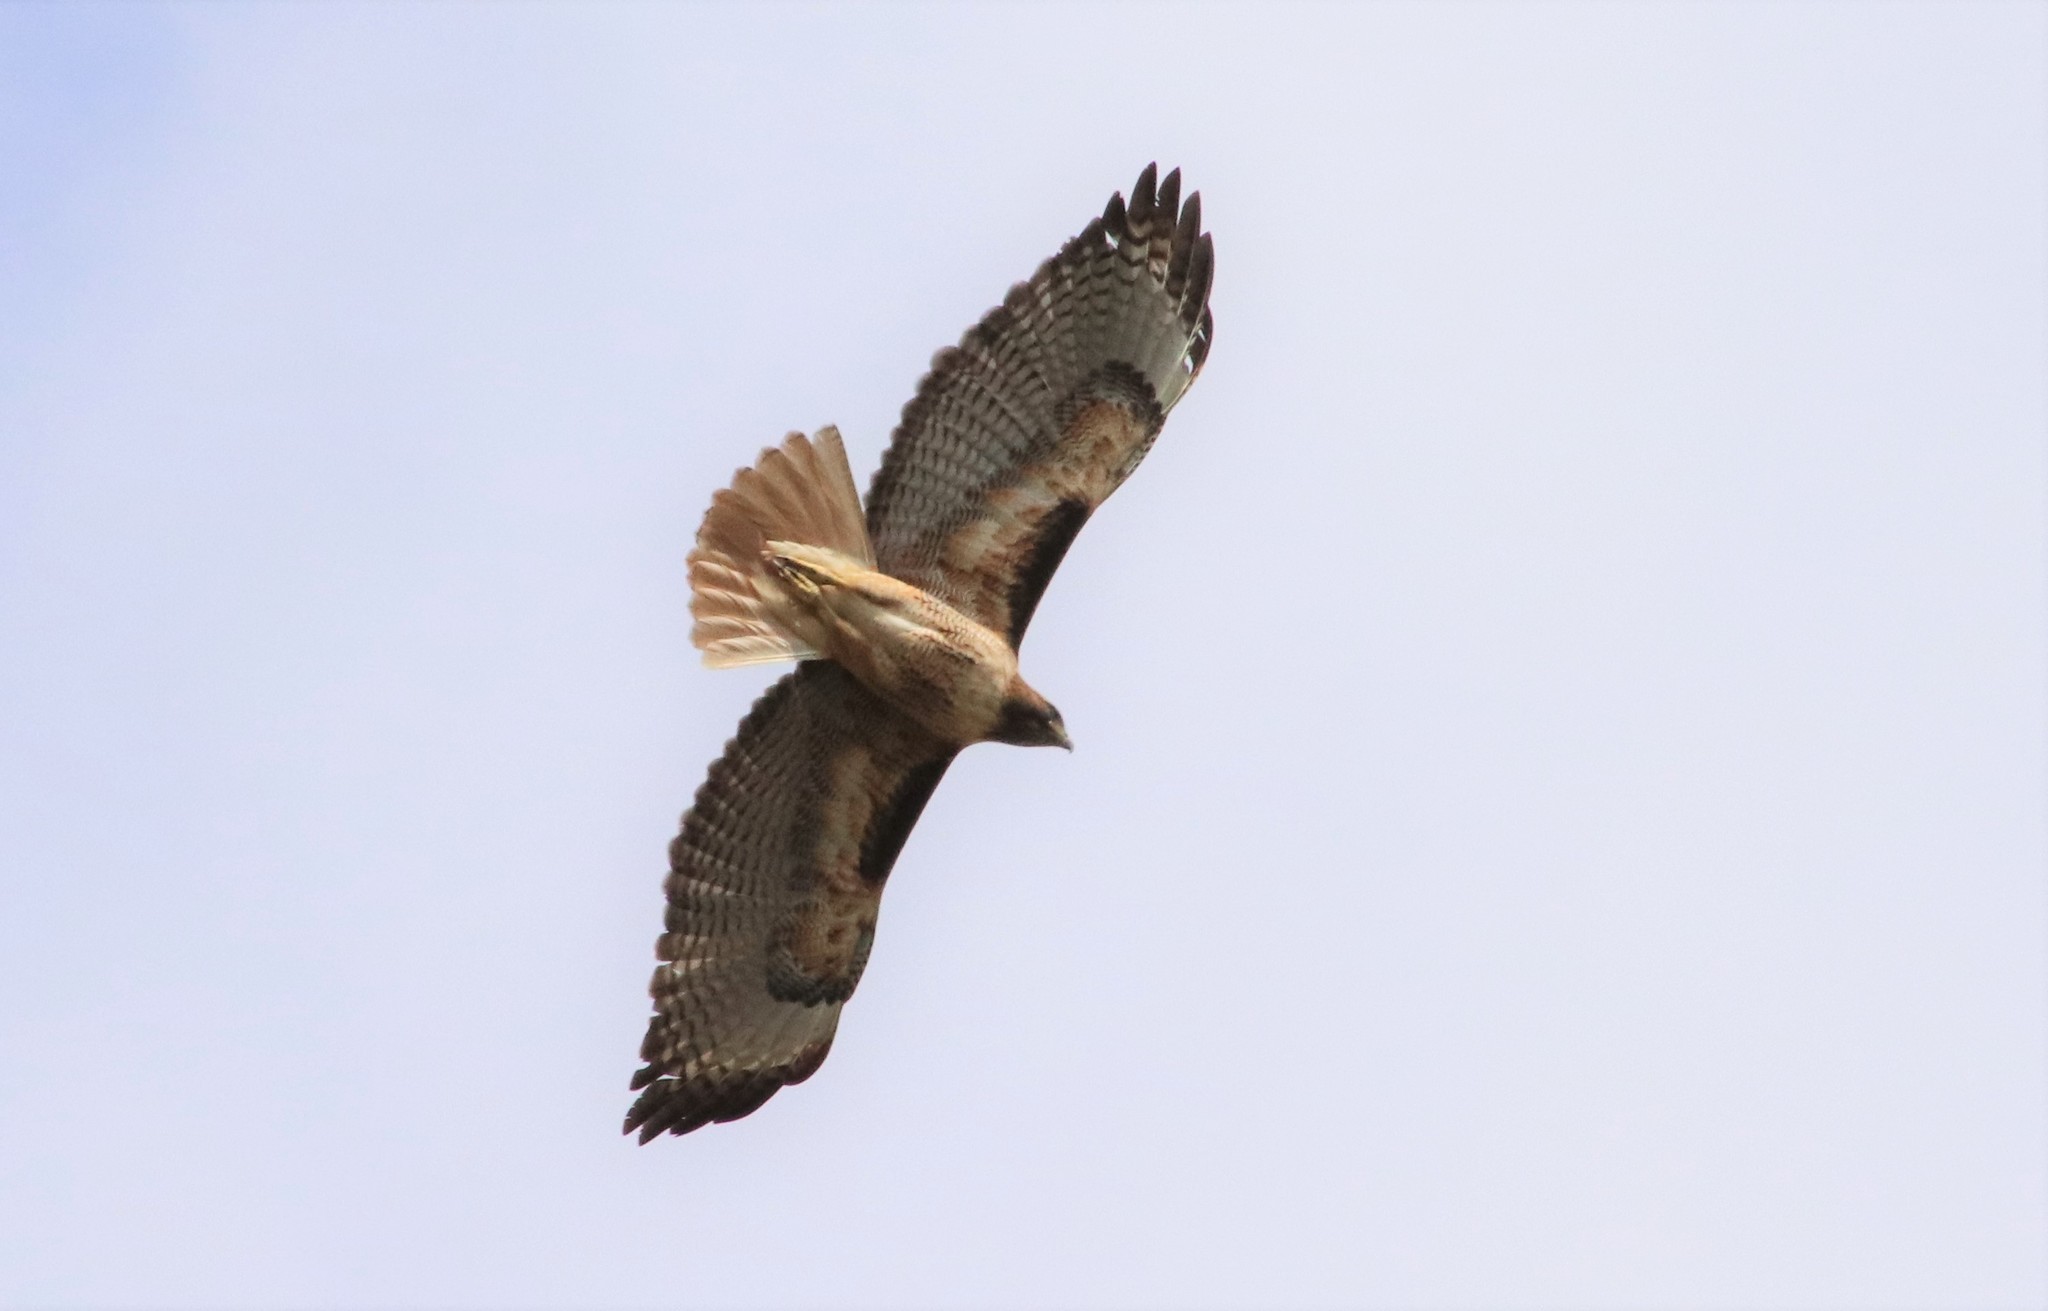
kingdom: Animalia
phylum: Chordata
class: Aves
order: Accipitriformes
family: Accipitridae
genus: Buteo
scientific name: Buteo jamaicensis
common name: Red-tailed hawk
